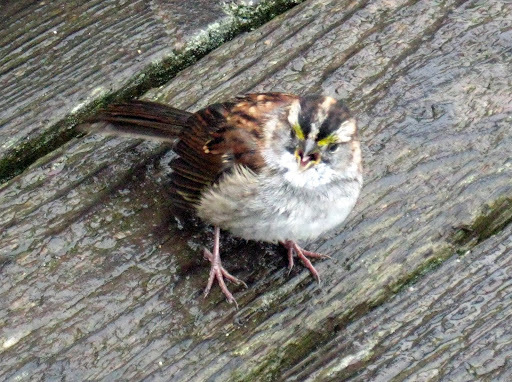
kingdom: Animalia
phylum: Chordata
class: Aves
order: Passeriformes
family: Passerellidae
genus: Zonotrichia
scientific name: Zonotrichia albicollis
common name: White-throated sparrow
